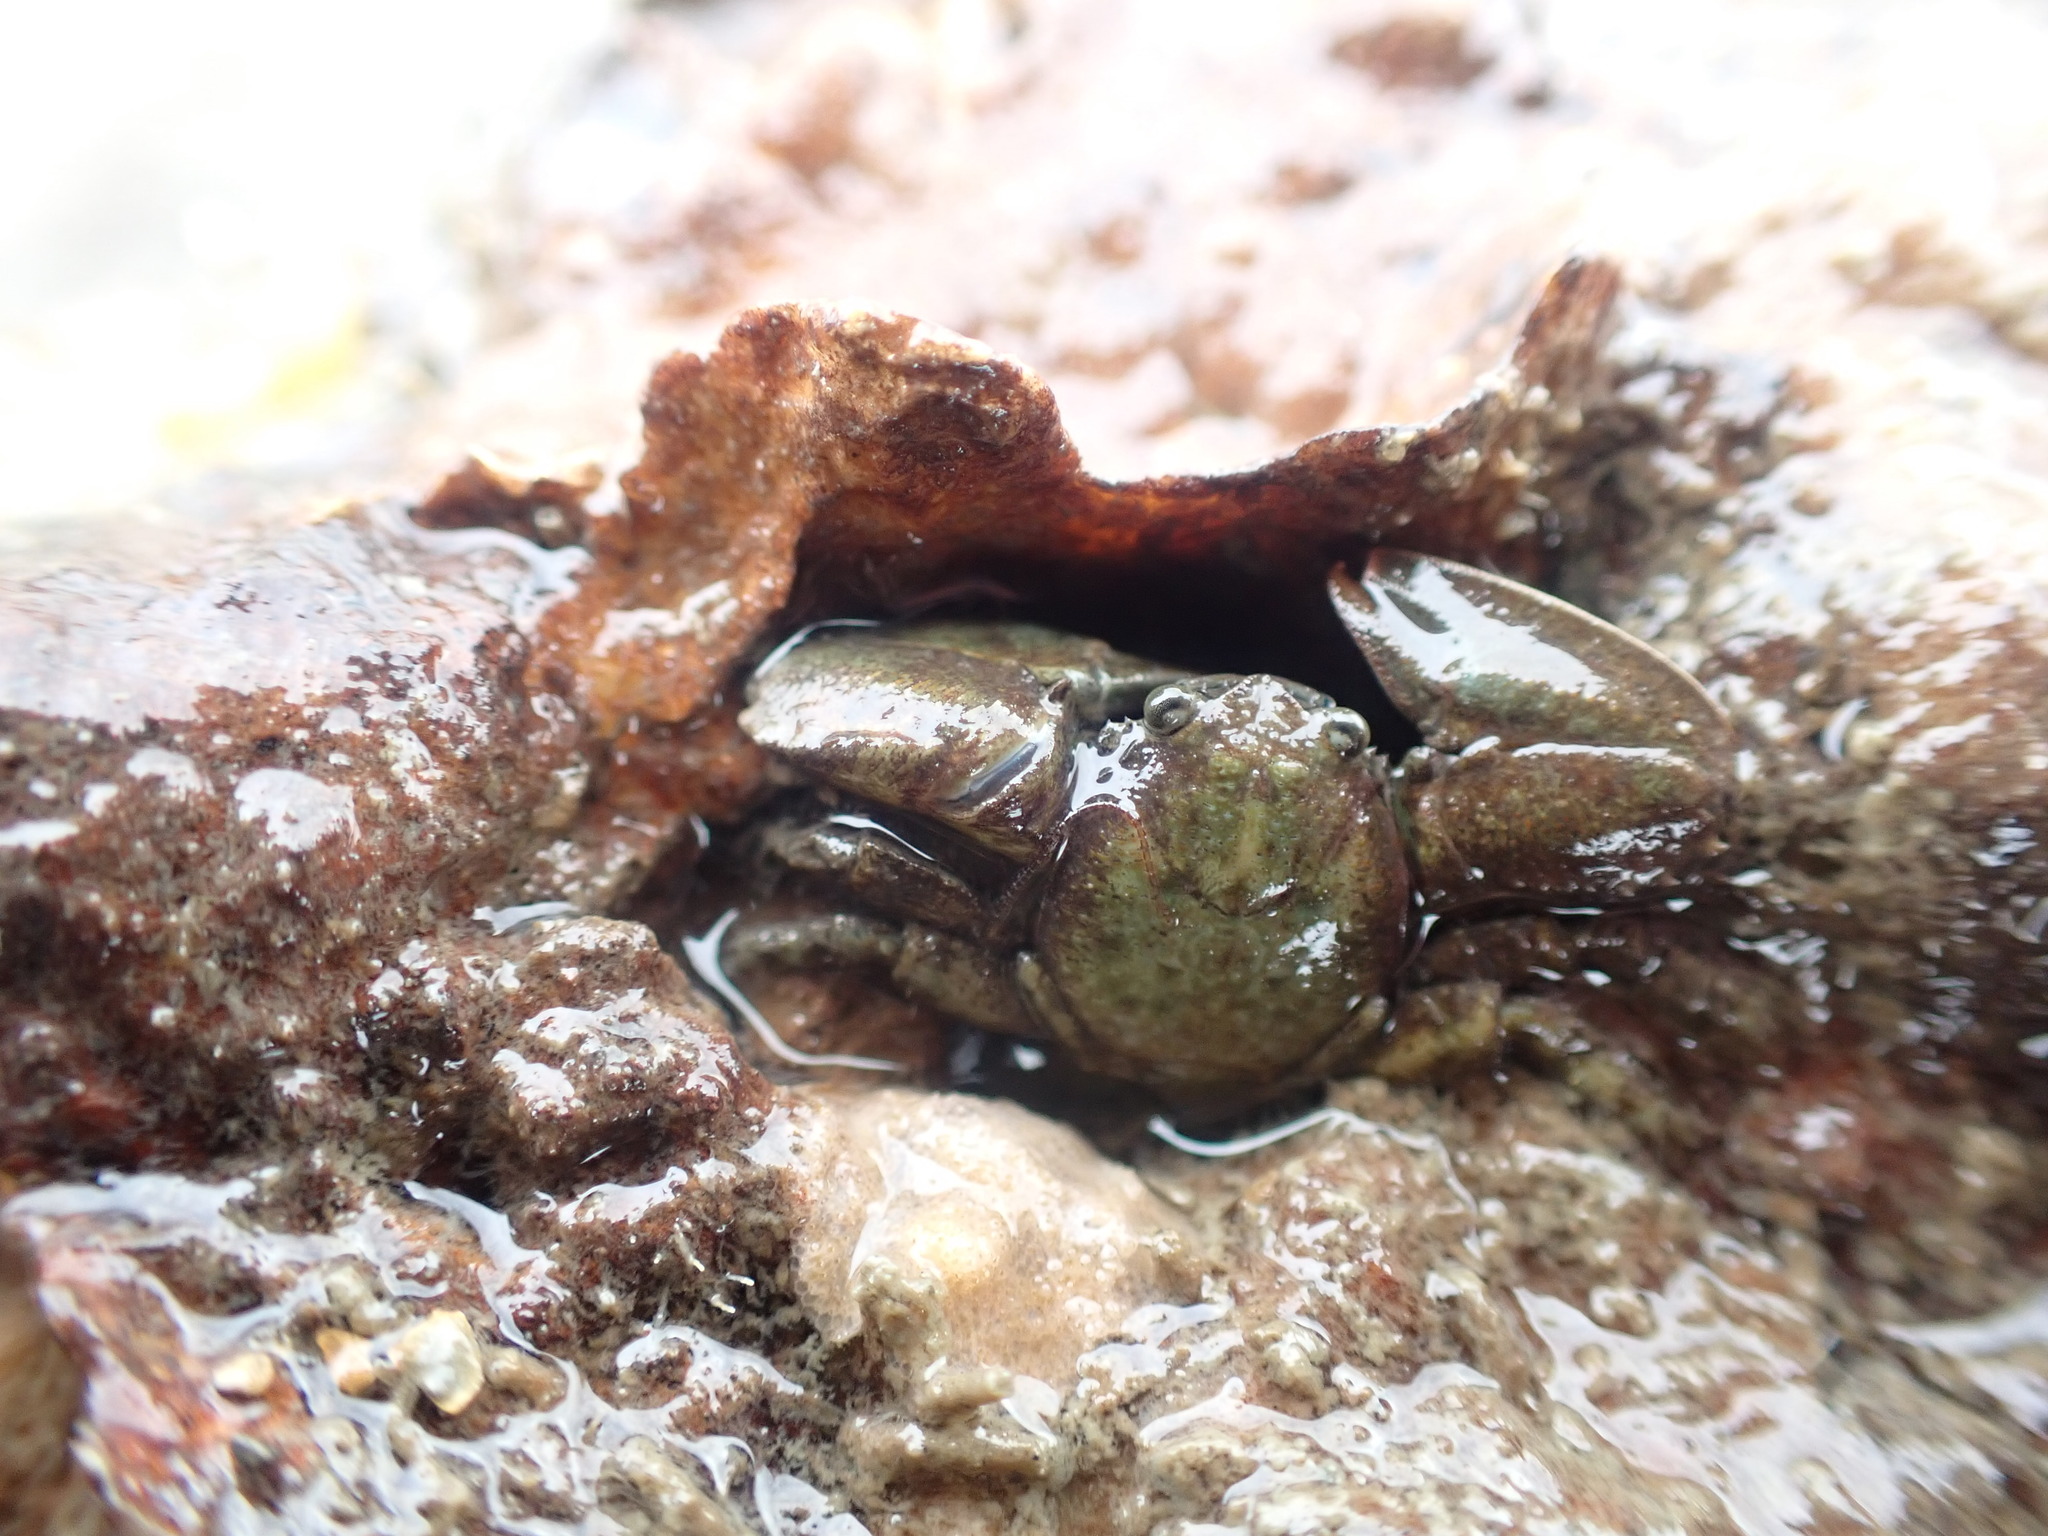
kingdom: Animalia
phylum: Arthropoda
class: Malacostraca
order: Decapoda
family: Porcellanidae
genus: Petrolisthes
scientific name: Petrolisthes elongatus
